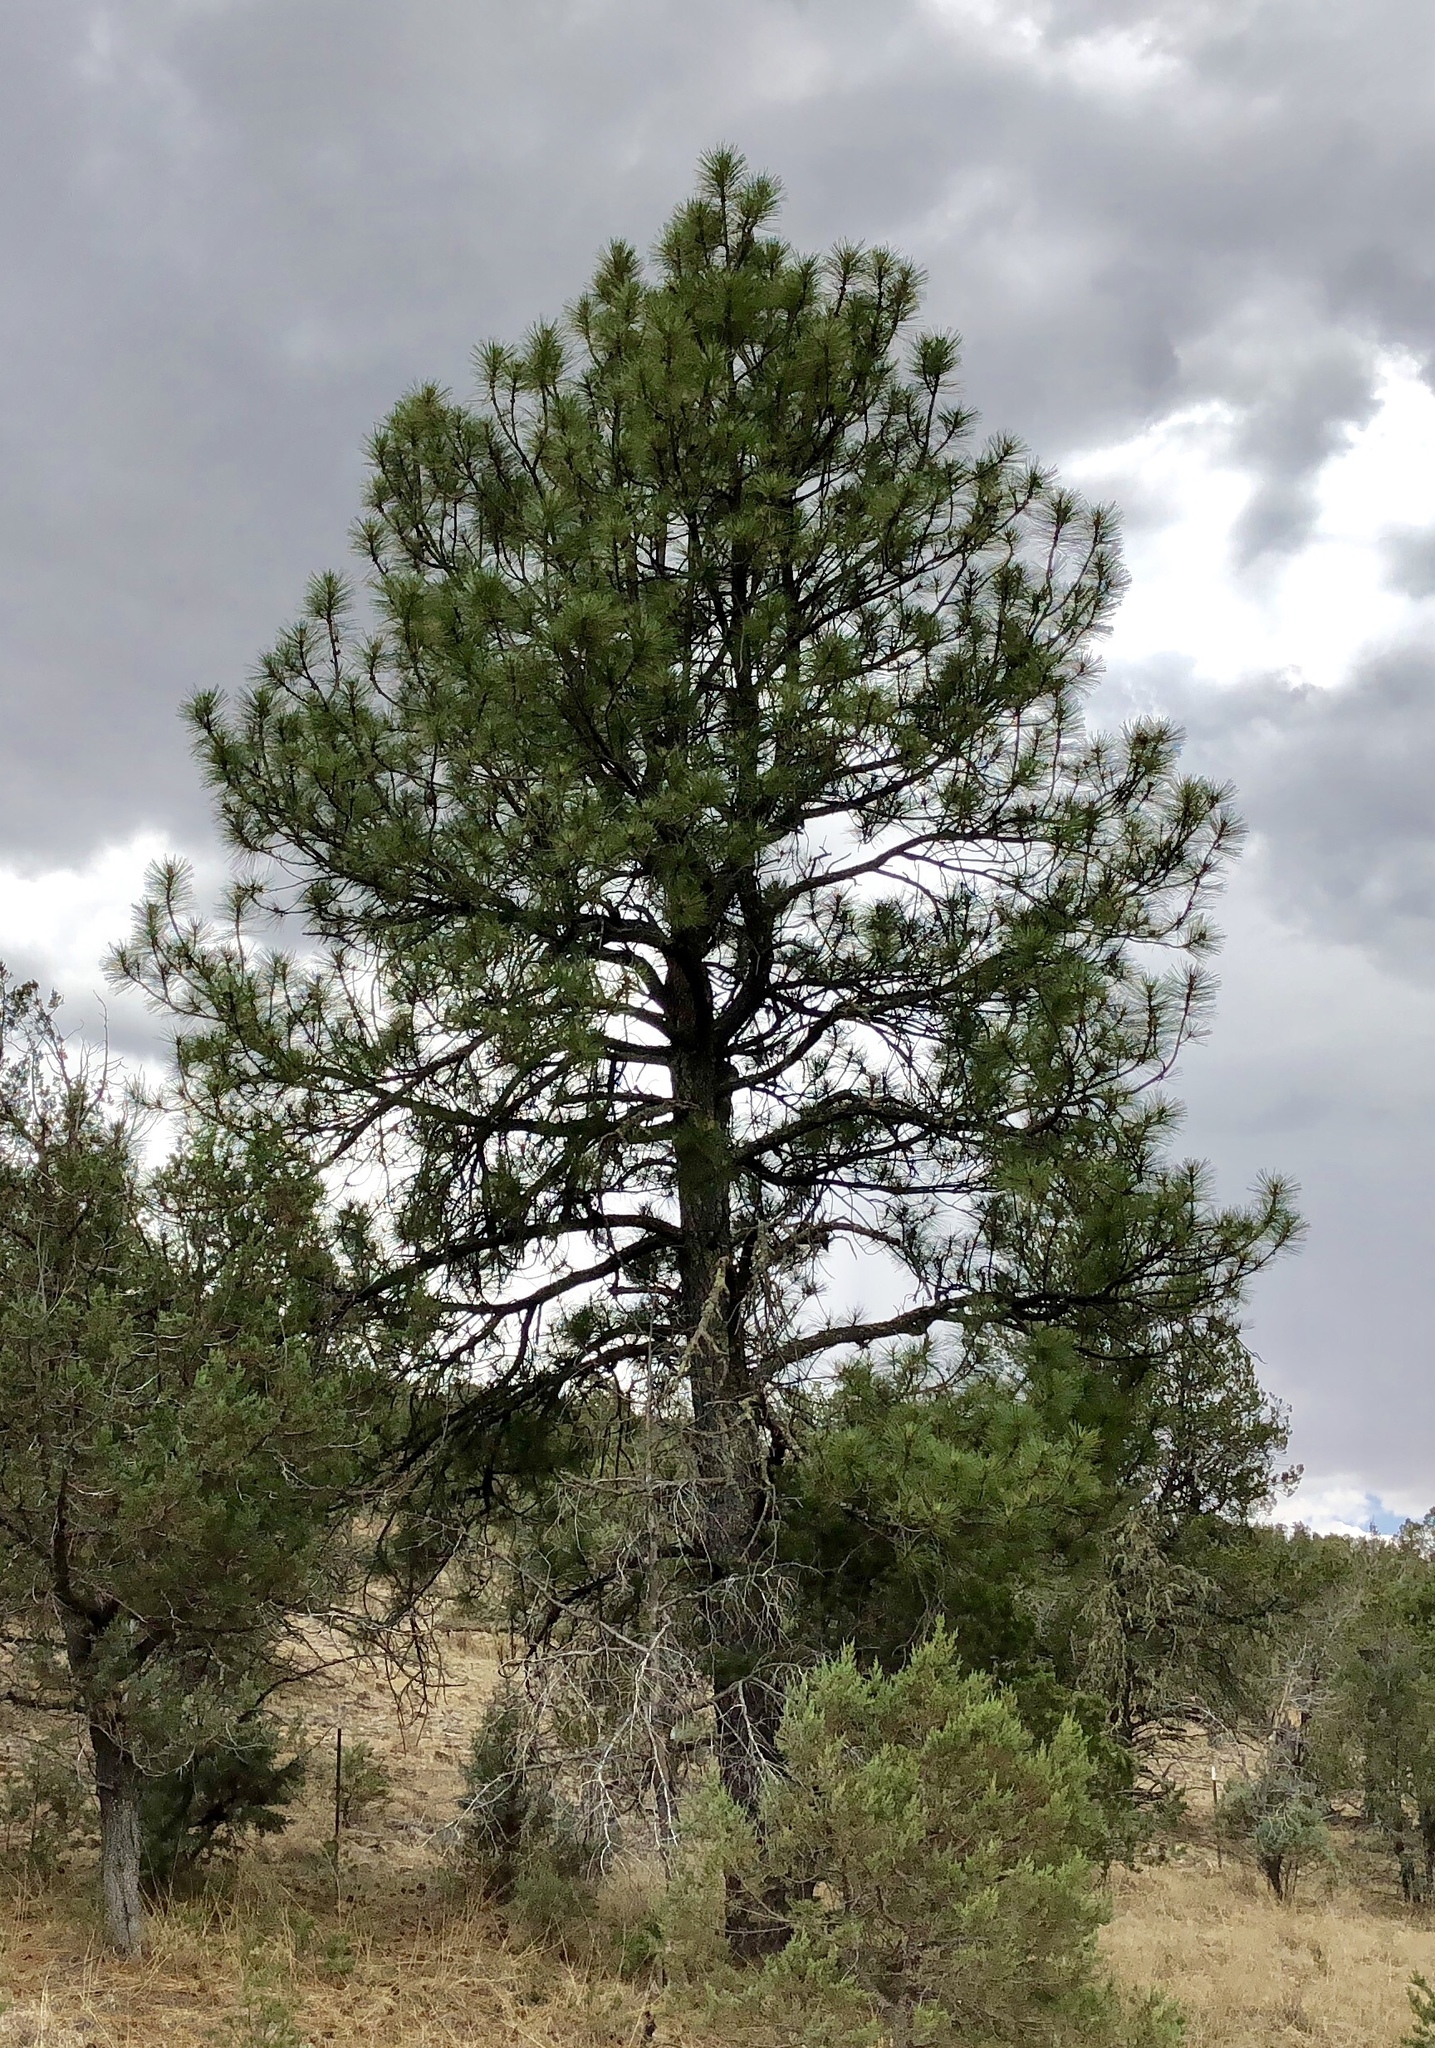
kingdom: Plantae
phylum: Tracheophyta
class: Pinopsida
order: Pinales
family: Pinaceae
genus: Pinus
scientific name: Pinus ponderosa
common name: Western yellow-pine
